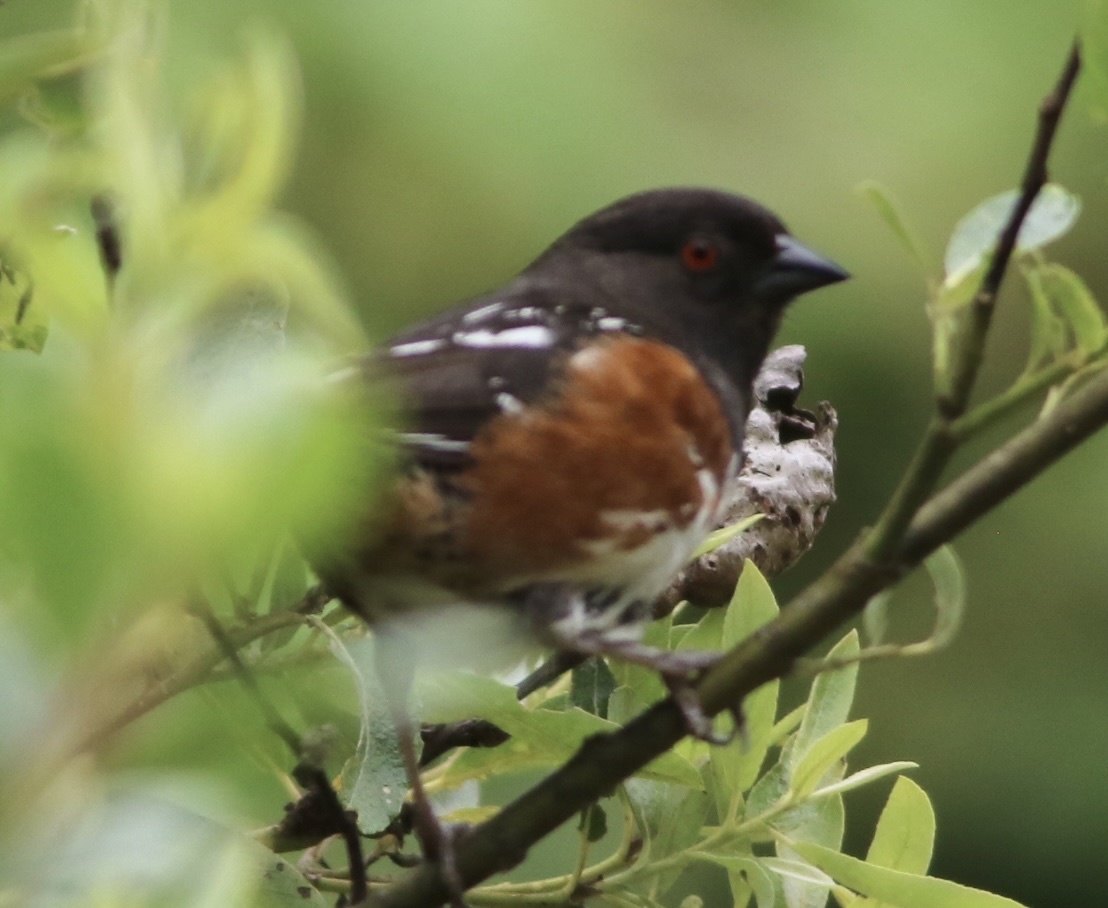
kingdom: Animalia
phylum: Chordata
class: Aves
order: Passeriformes
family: Passerellidae
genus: Pipilo
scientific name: Pipilo maculatus
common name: Spotted towhee
